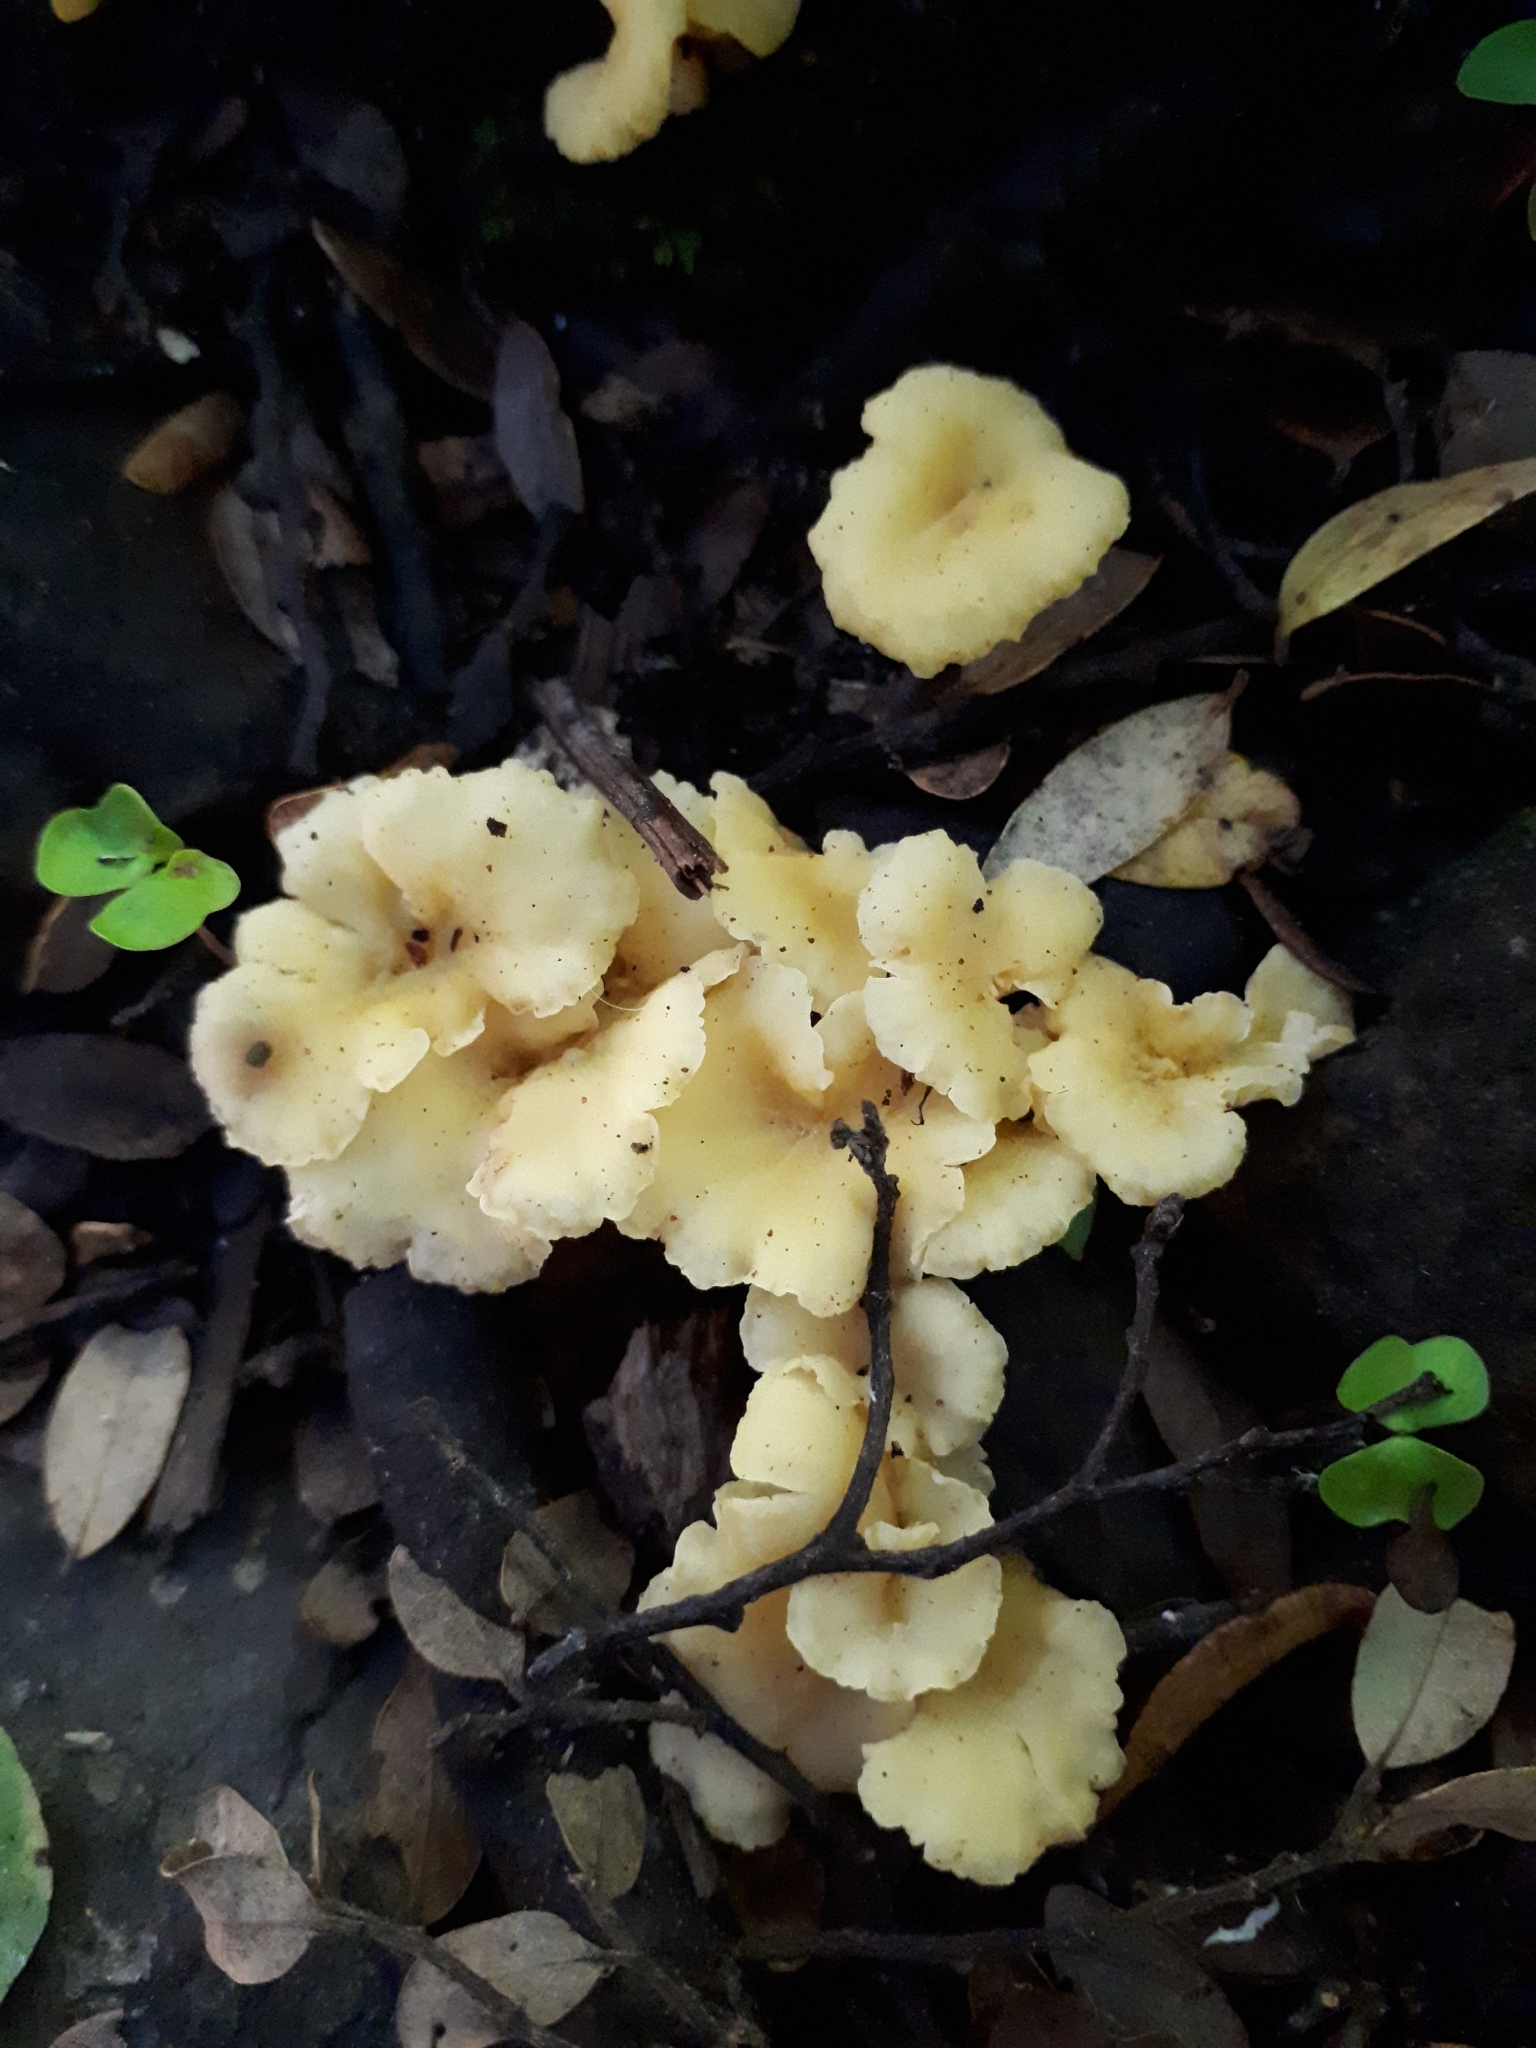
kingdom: Fungi
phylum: Basidiomycota
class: Agaricomycetes
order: Cantharellales
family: Hydnaceae
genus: Cantharellus
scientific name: Cantharellus wellingtonensis
